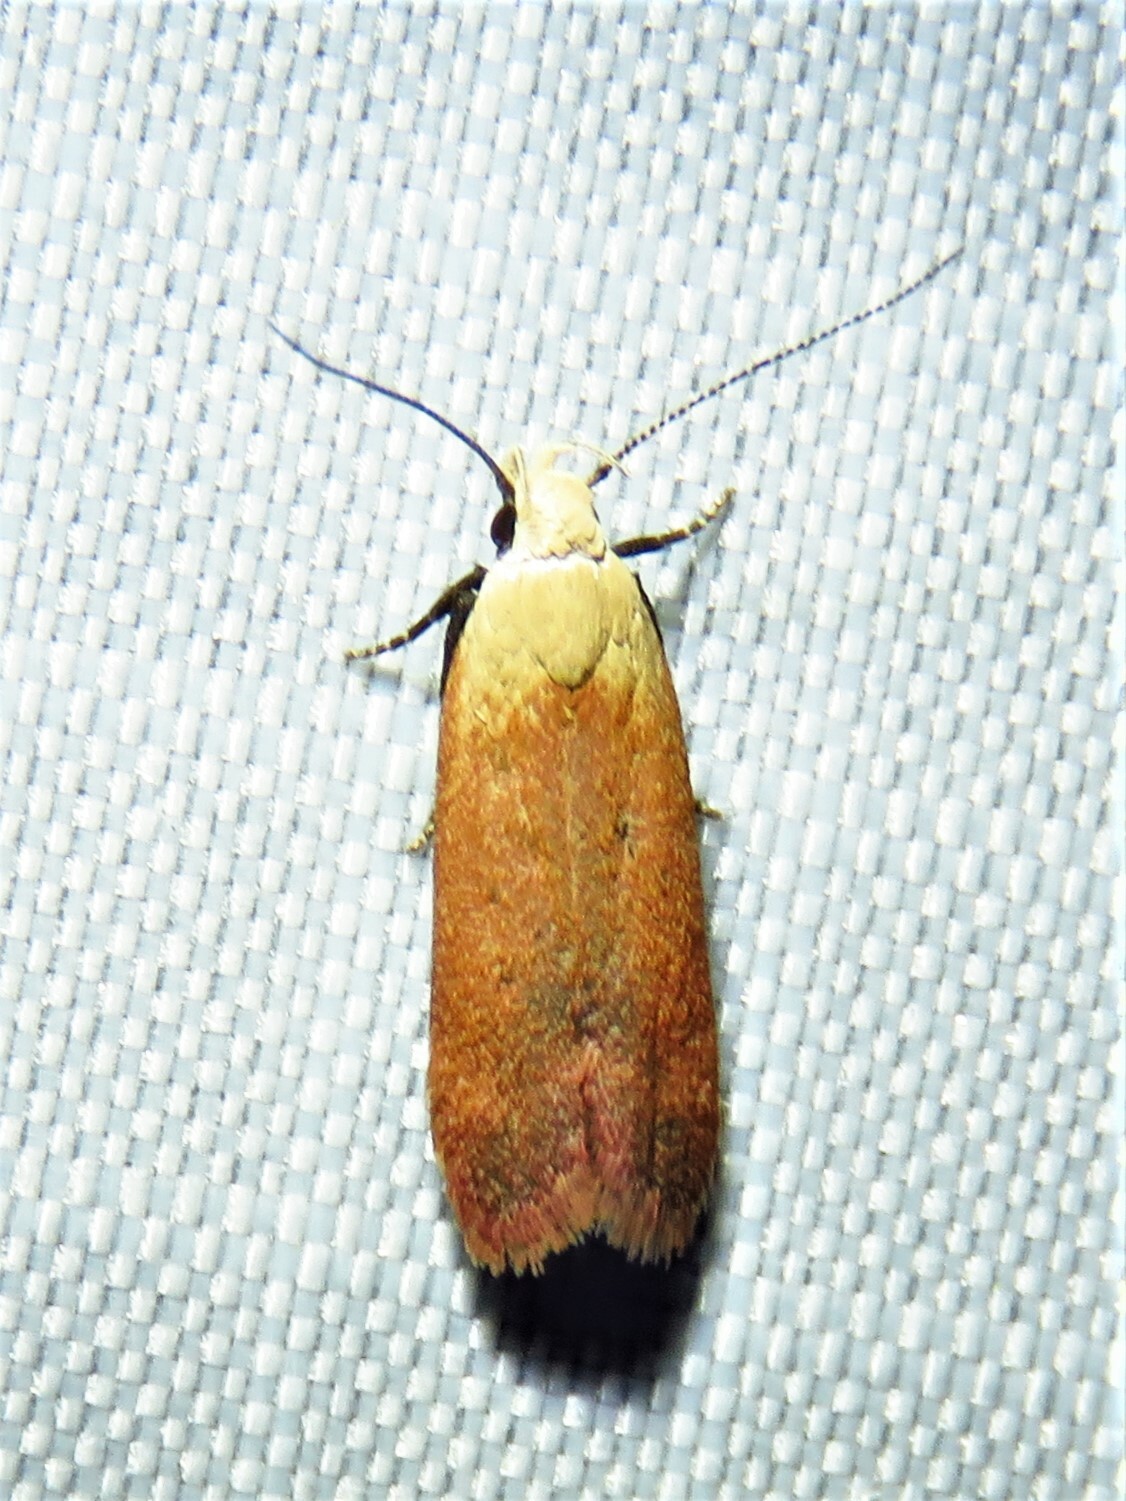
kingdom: Animalia
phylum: Arthropoda
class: Insecta
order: Lepidoptera
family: Gelechiidae
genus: Anacampsis
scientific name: Anacampsis fullonella
